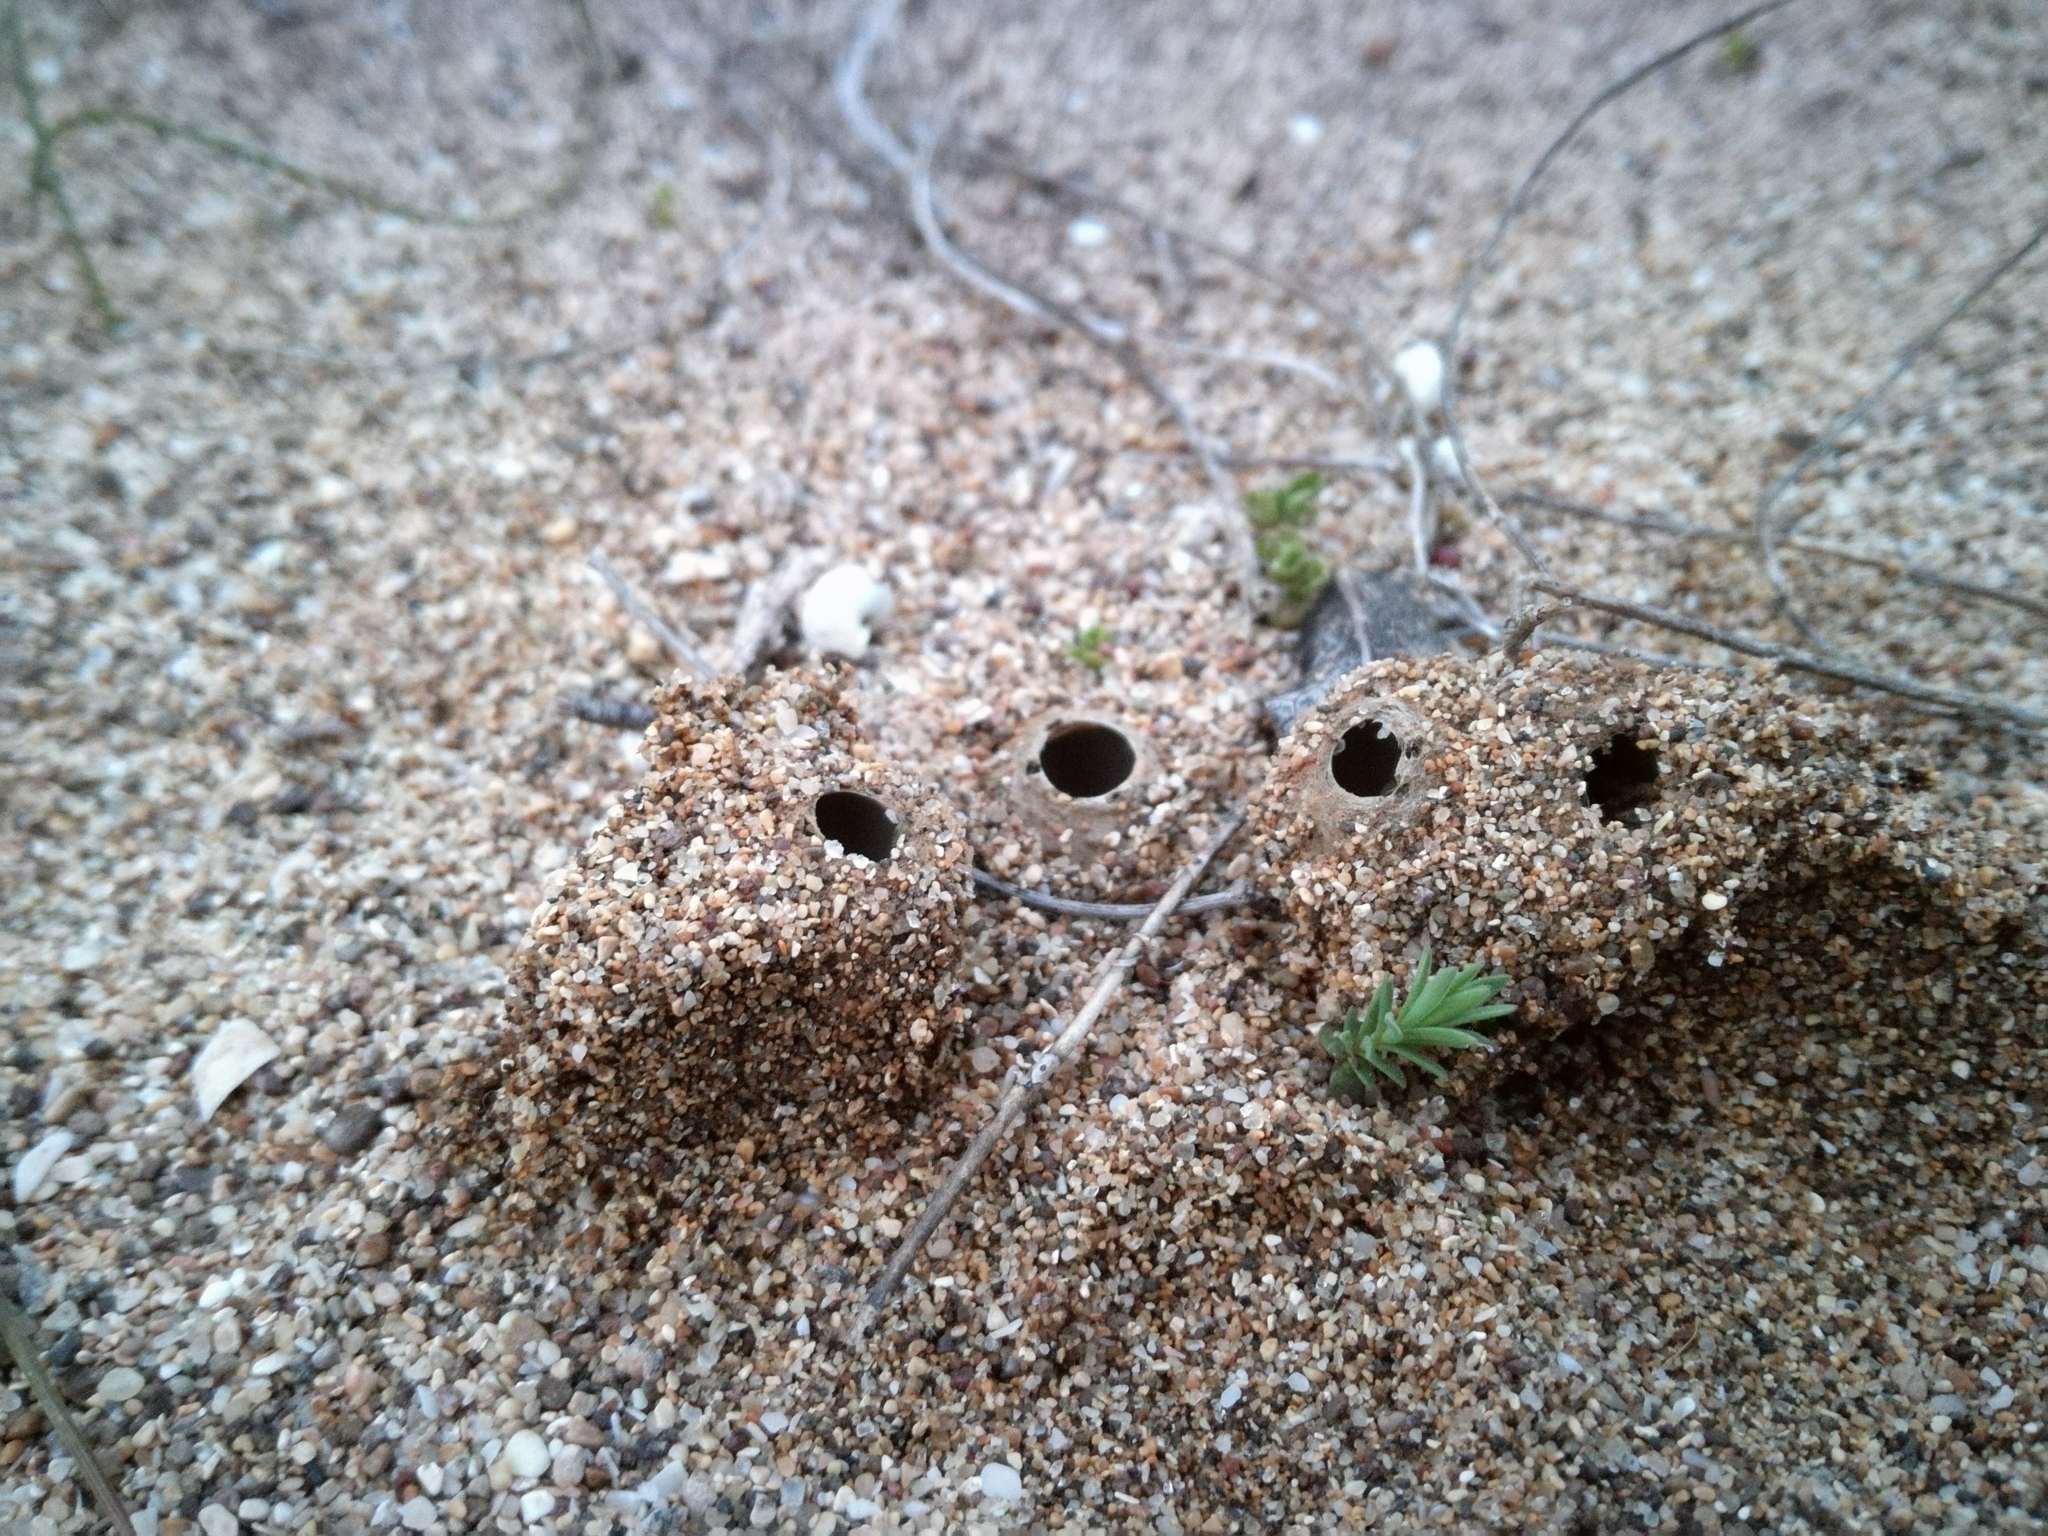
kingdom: Fungi
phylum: Ascomycota
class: Pezizomycetes
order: Pezizales
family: Pyronemataceae
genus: Geopora
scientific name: Geopora arenicola
